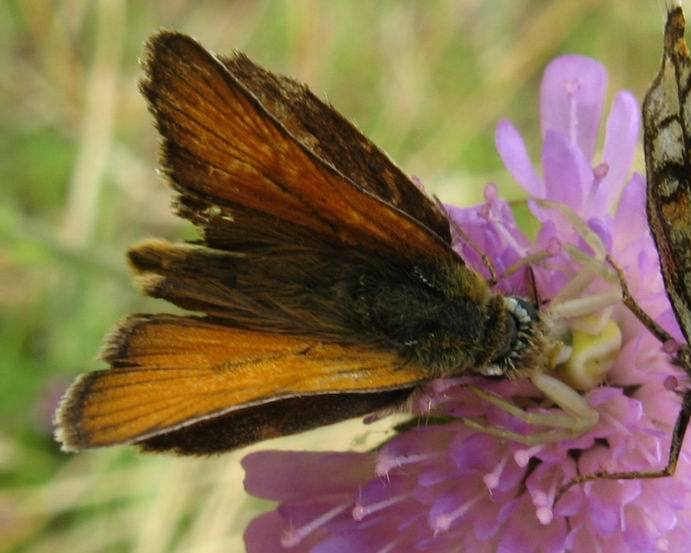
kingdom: Animalia
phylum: Arthropoda
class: Arachnida
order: Araneae
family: Thomisidae
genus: Misumena
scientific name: Misumena vatia
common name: Goldenrod crab spider
